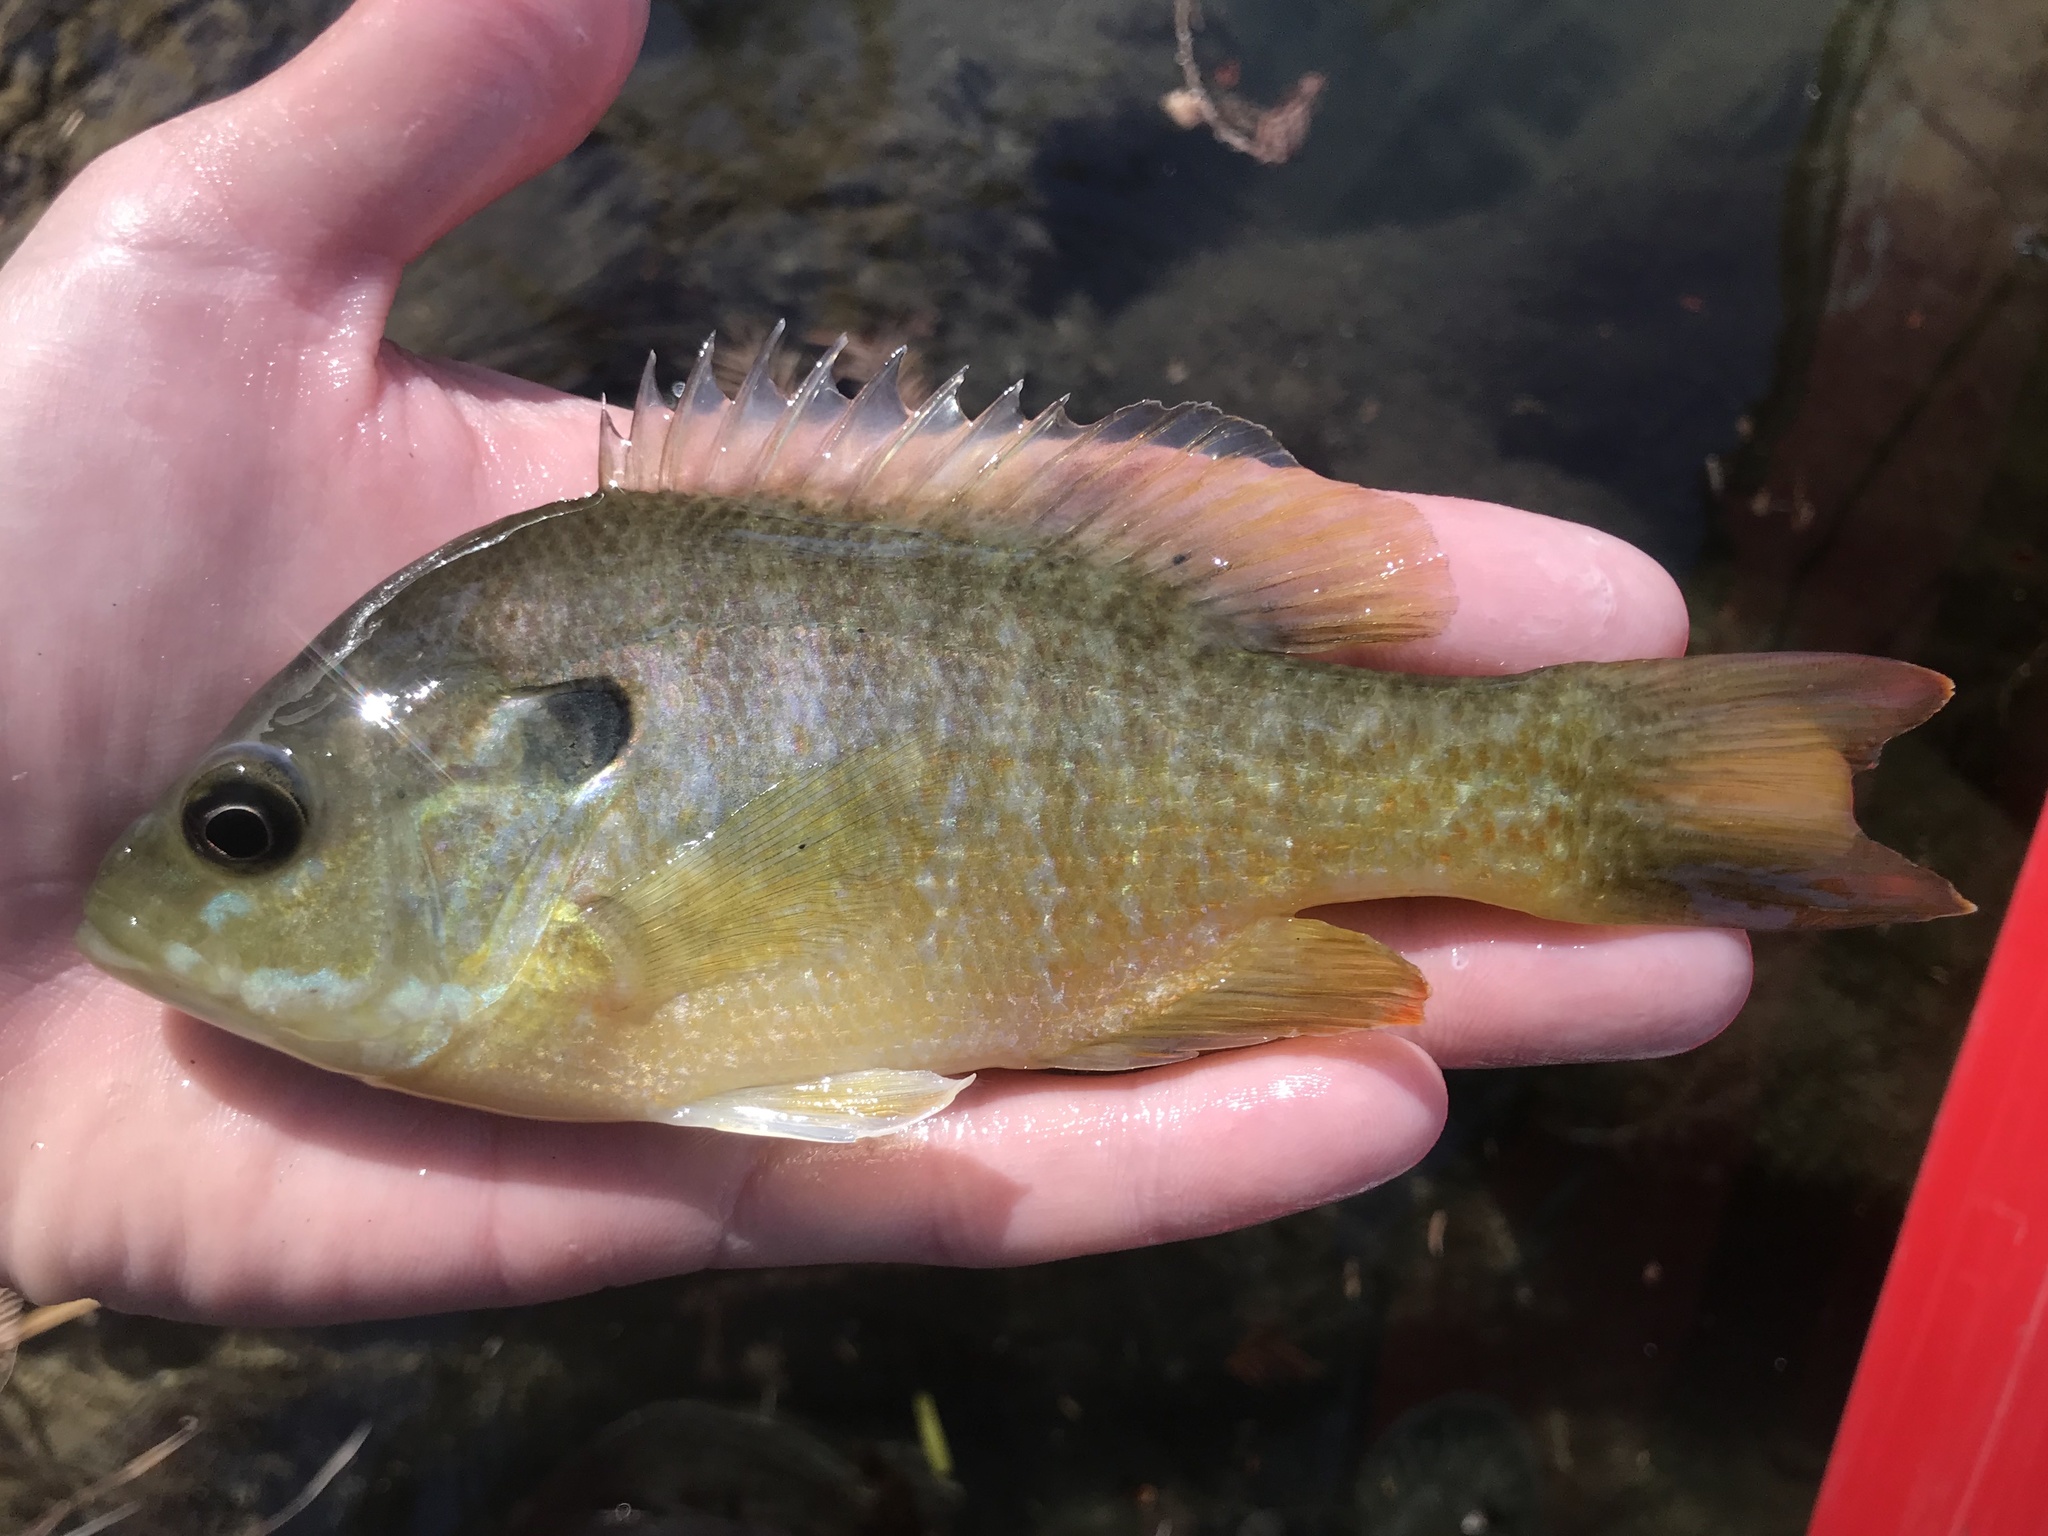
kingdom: Animalia
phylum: Chordata
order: Perciformes
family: Centrarchidae
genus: Lepomis
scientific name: Lepomis
